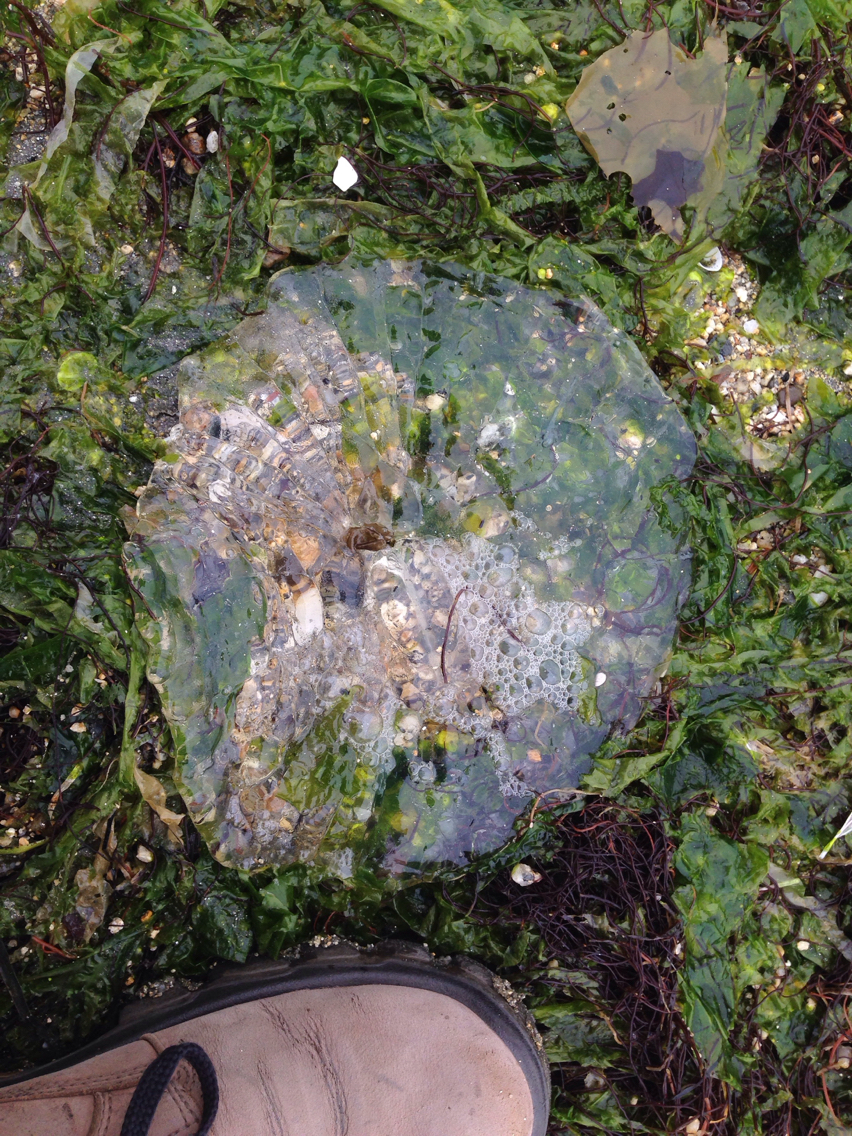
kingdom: Animalia
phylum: Cnidaria
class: Scyphozoa
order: Semaeostomeae
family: Pelagiidae
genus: Chrysaora
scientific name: Chrysaora fuscescens
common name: Sea nettle
